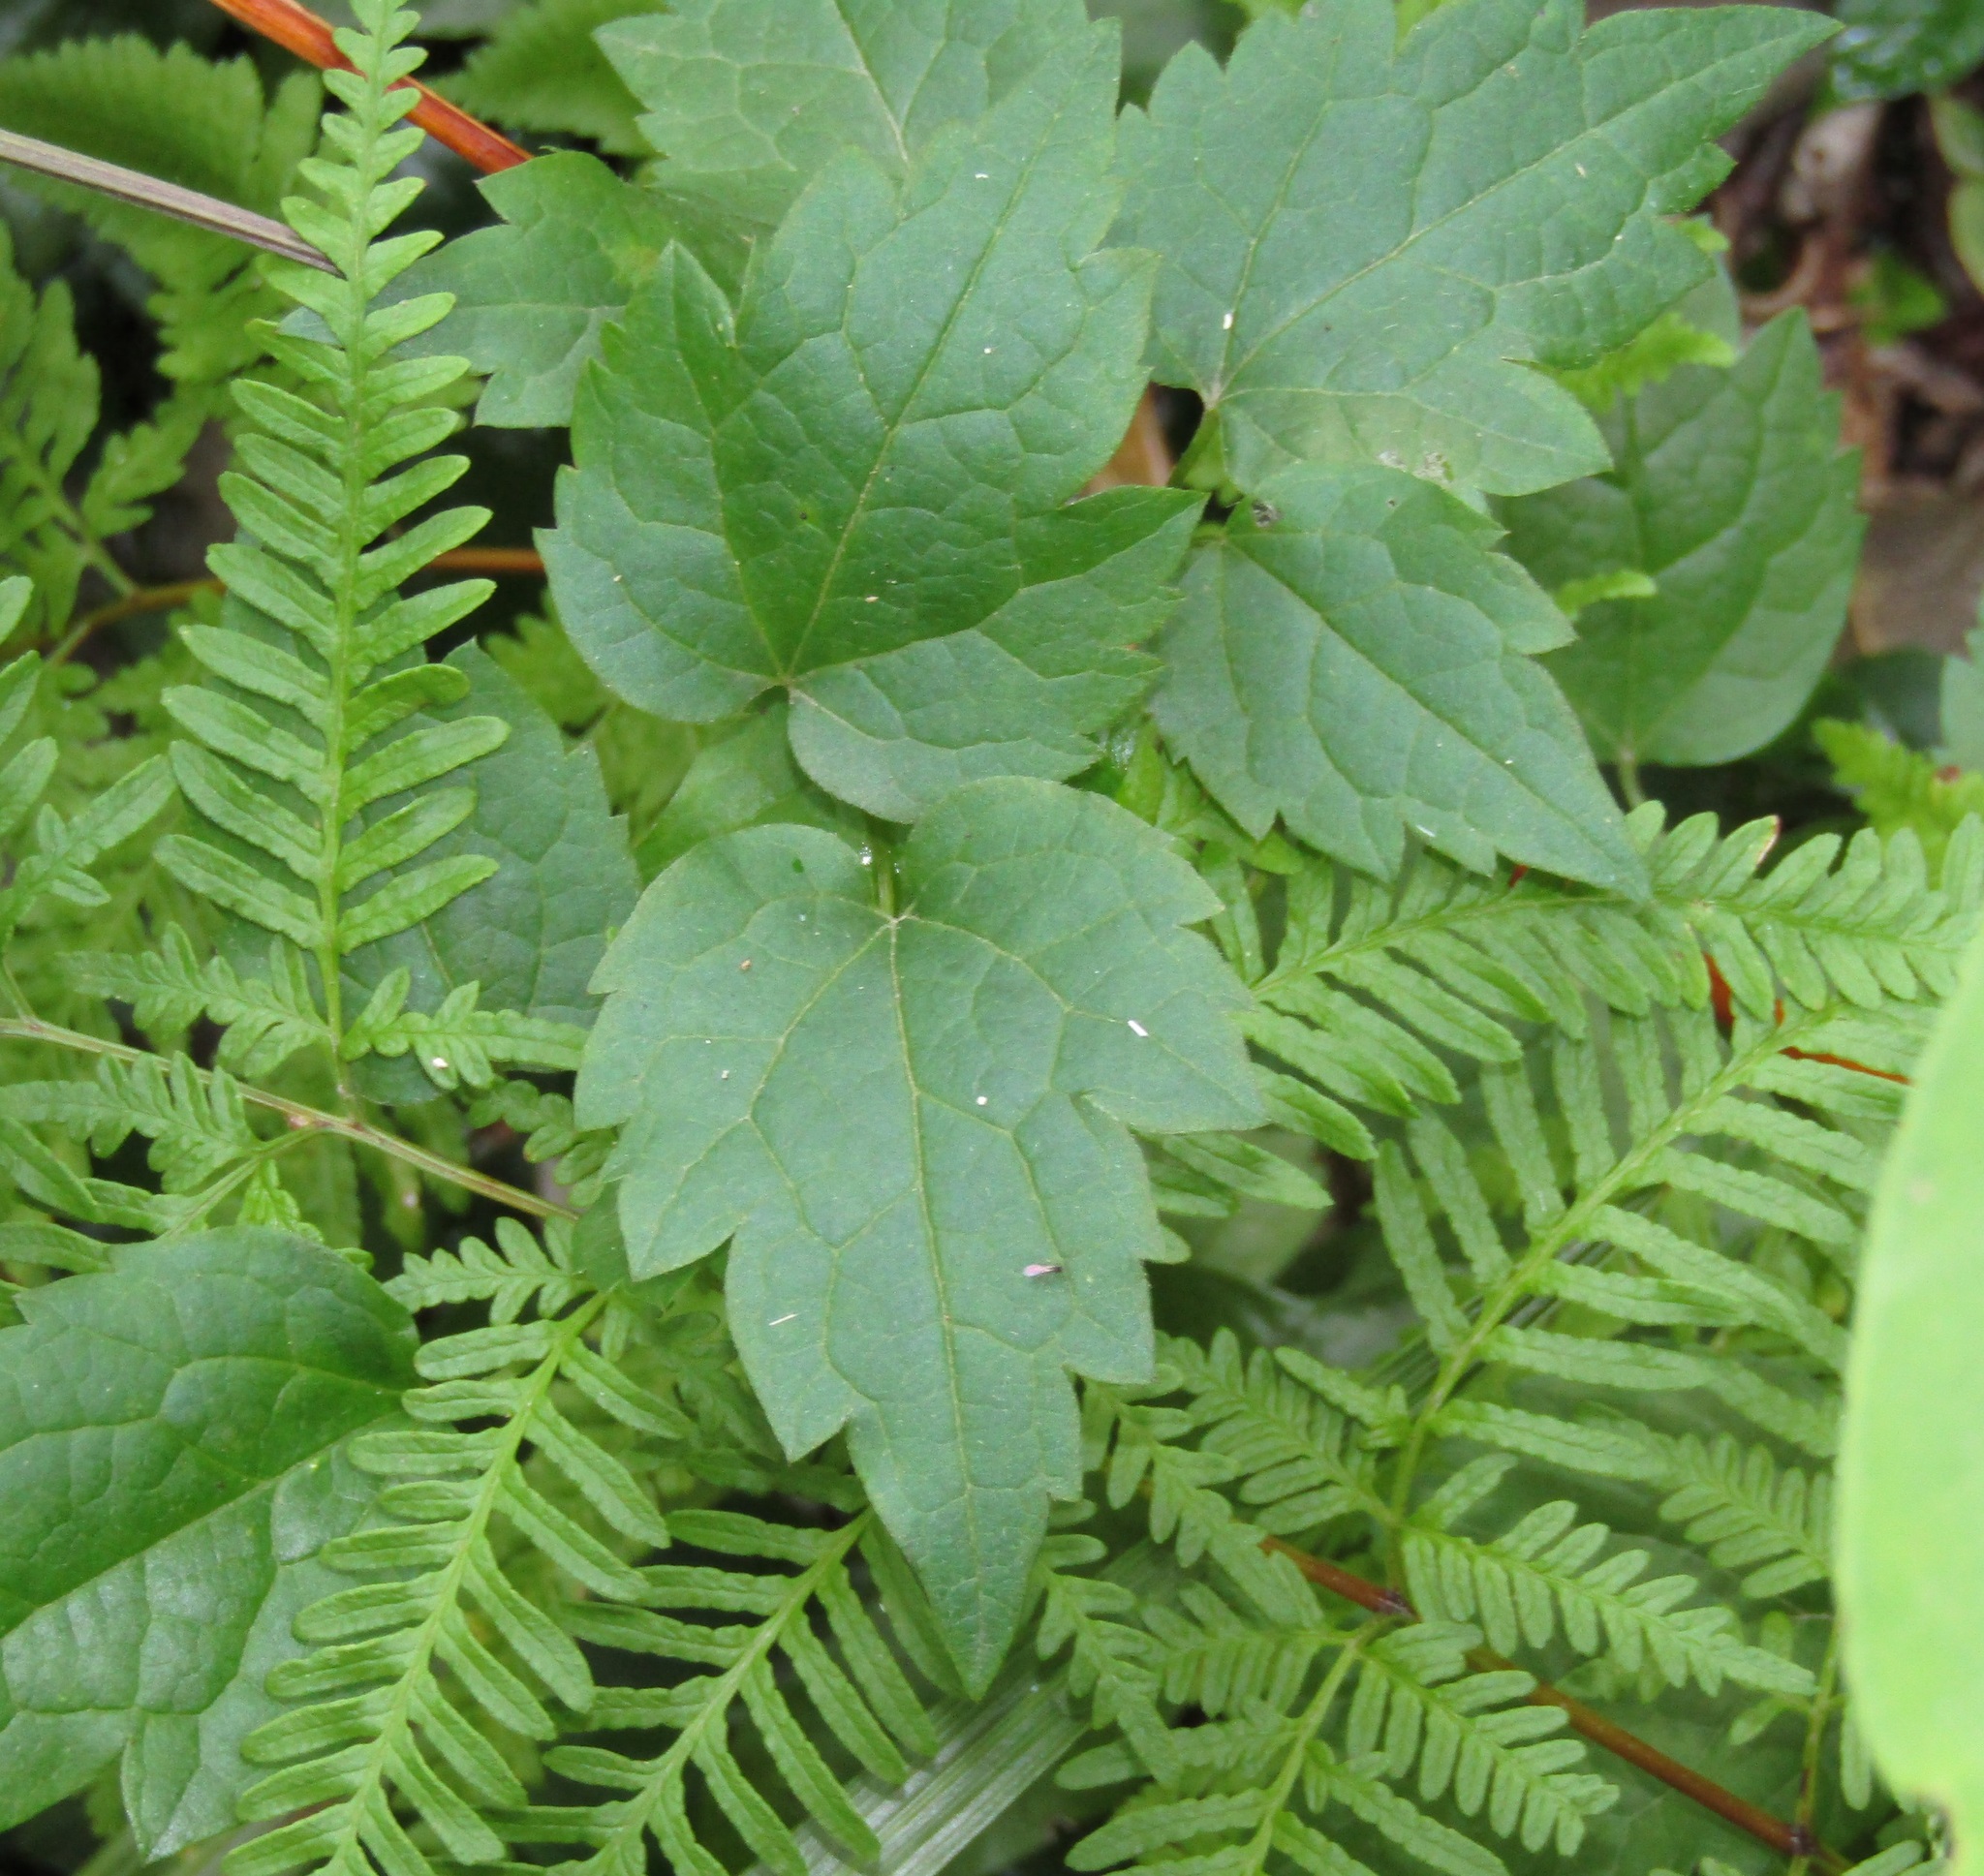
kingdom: Plantae
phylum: Tracheophyta
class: Magnoliopsida
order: Ranunculales
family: Ranunculaceae
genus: Clematis
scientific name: Clematis vitalba
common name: Evergreen clematis
